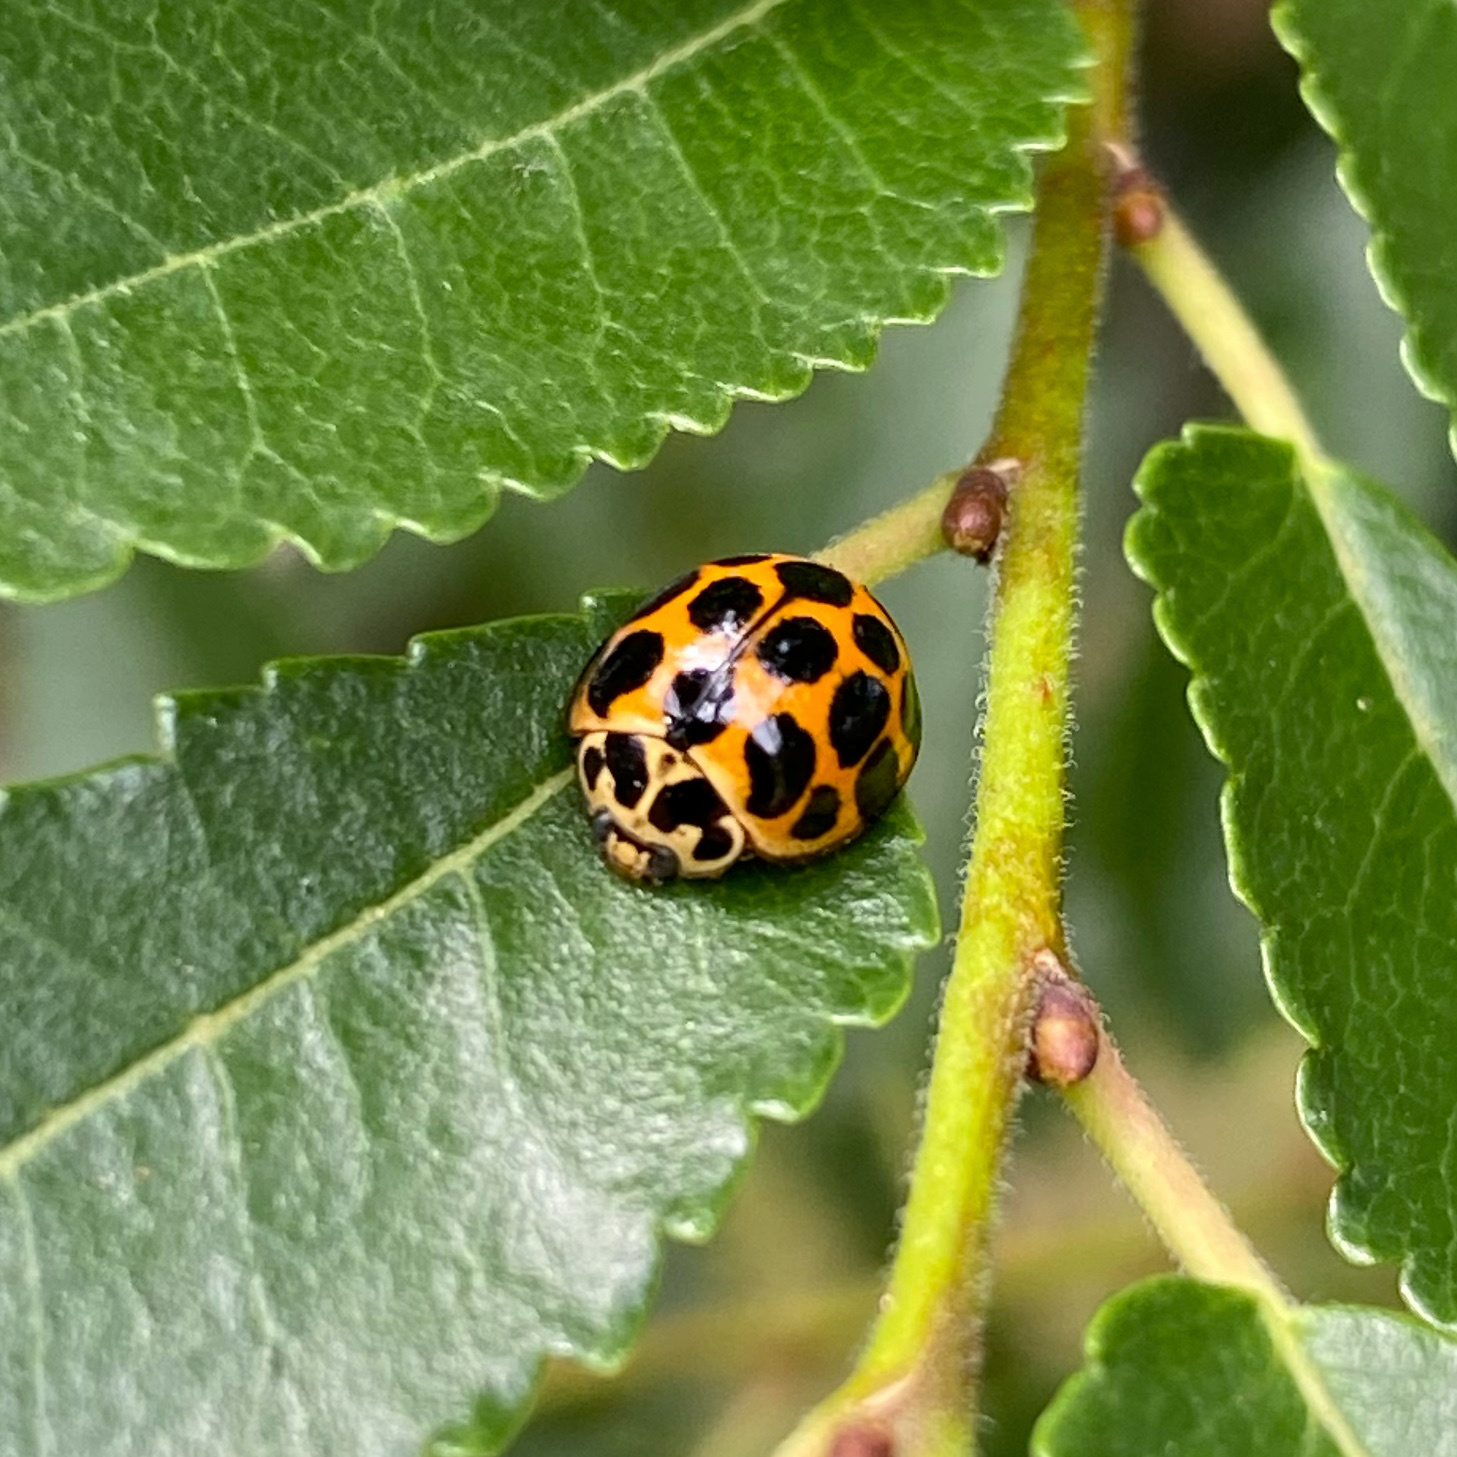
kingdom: Animalia
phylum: Arthropoda
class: Insecta
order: Coleoptera
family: Coccinellidae
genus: Harmonia
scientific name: Harmonia conformis
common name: Common spotted ladybird beetle
